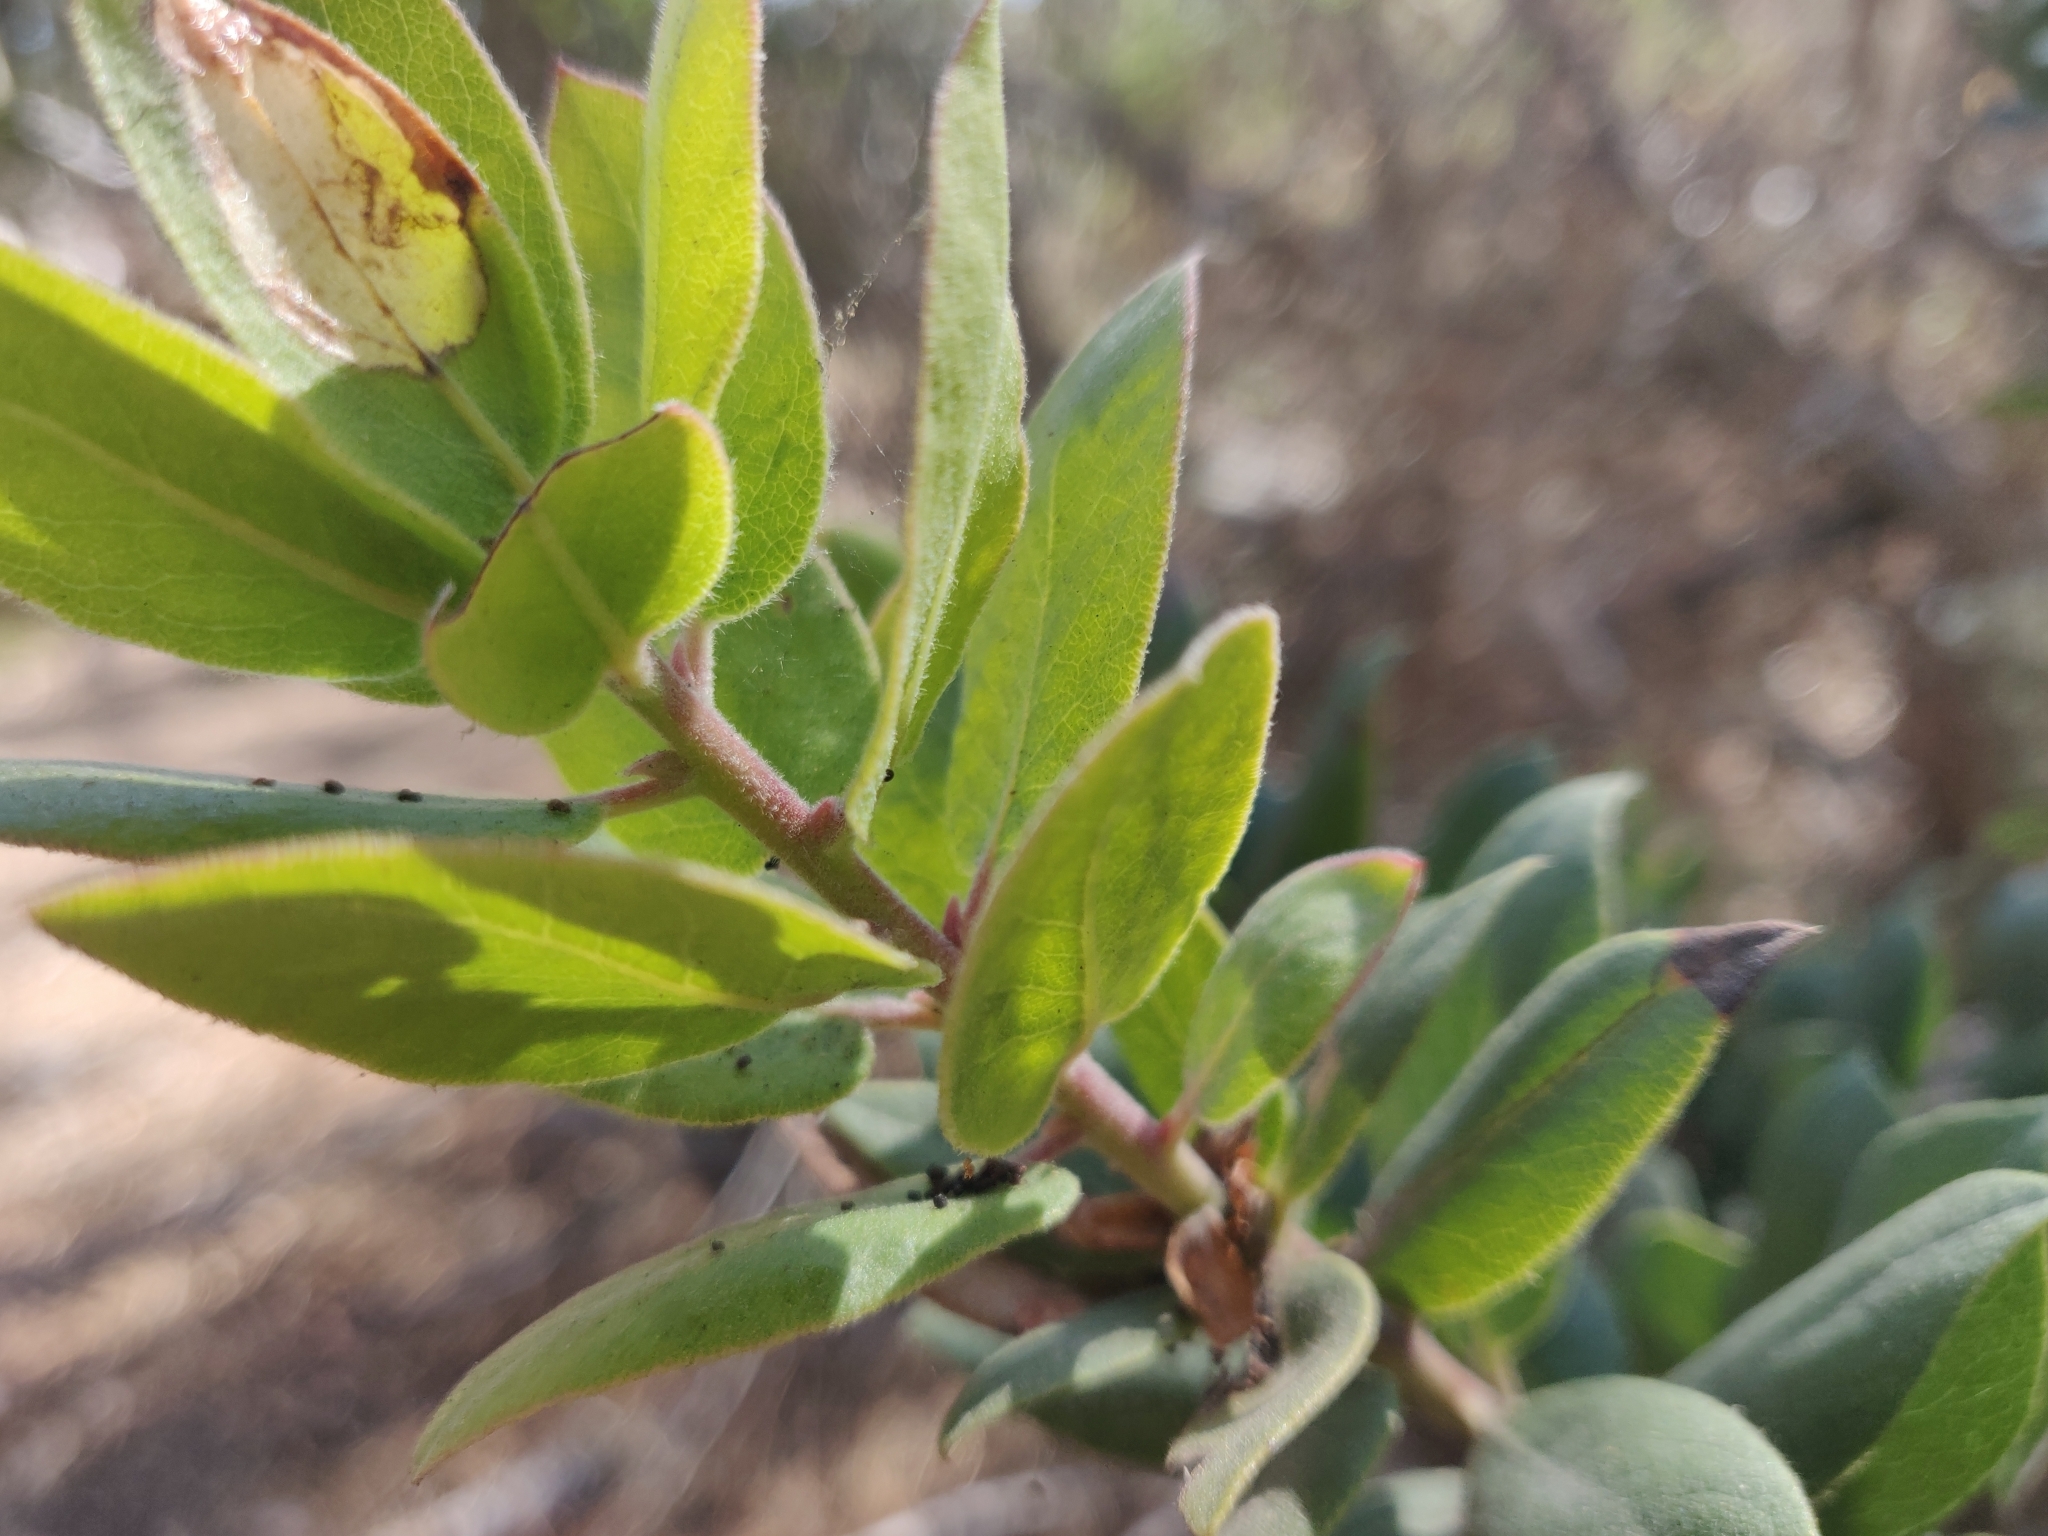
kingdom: Plantae
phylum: Tracheophyta
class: Magnoliopsida
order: Ericales
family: Ericaceae
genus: Arctostaphylos
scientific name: Arctostaphylos tomentosa
